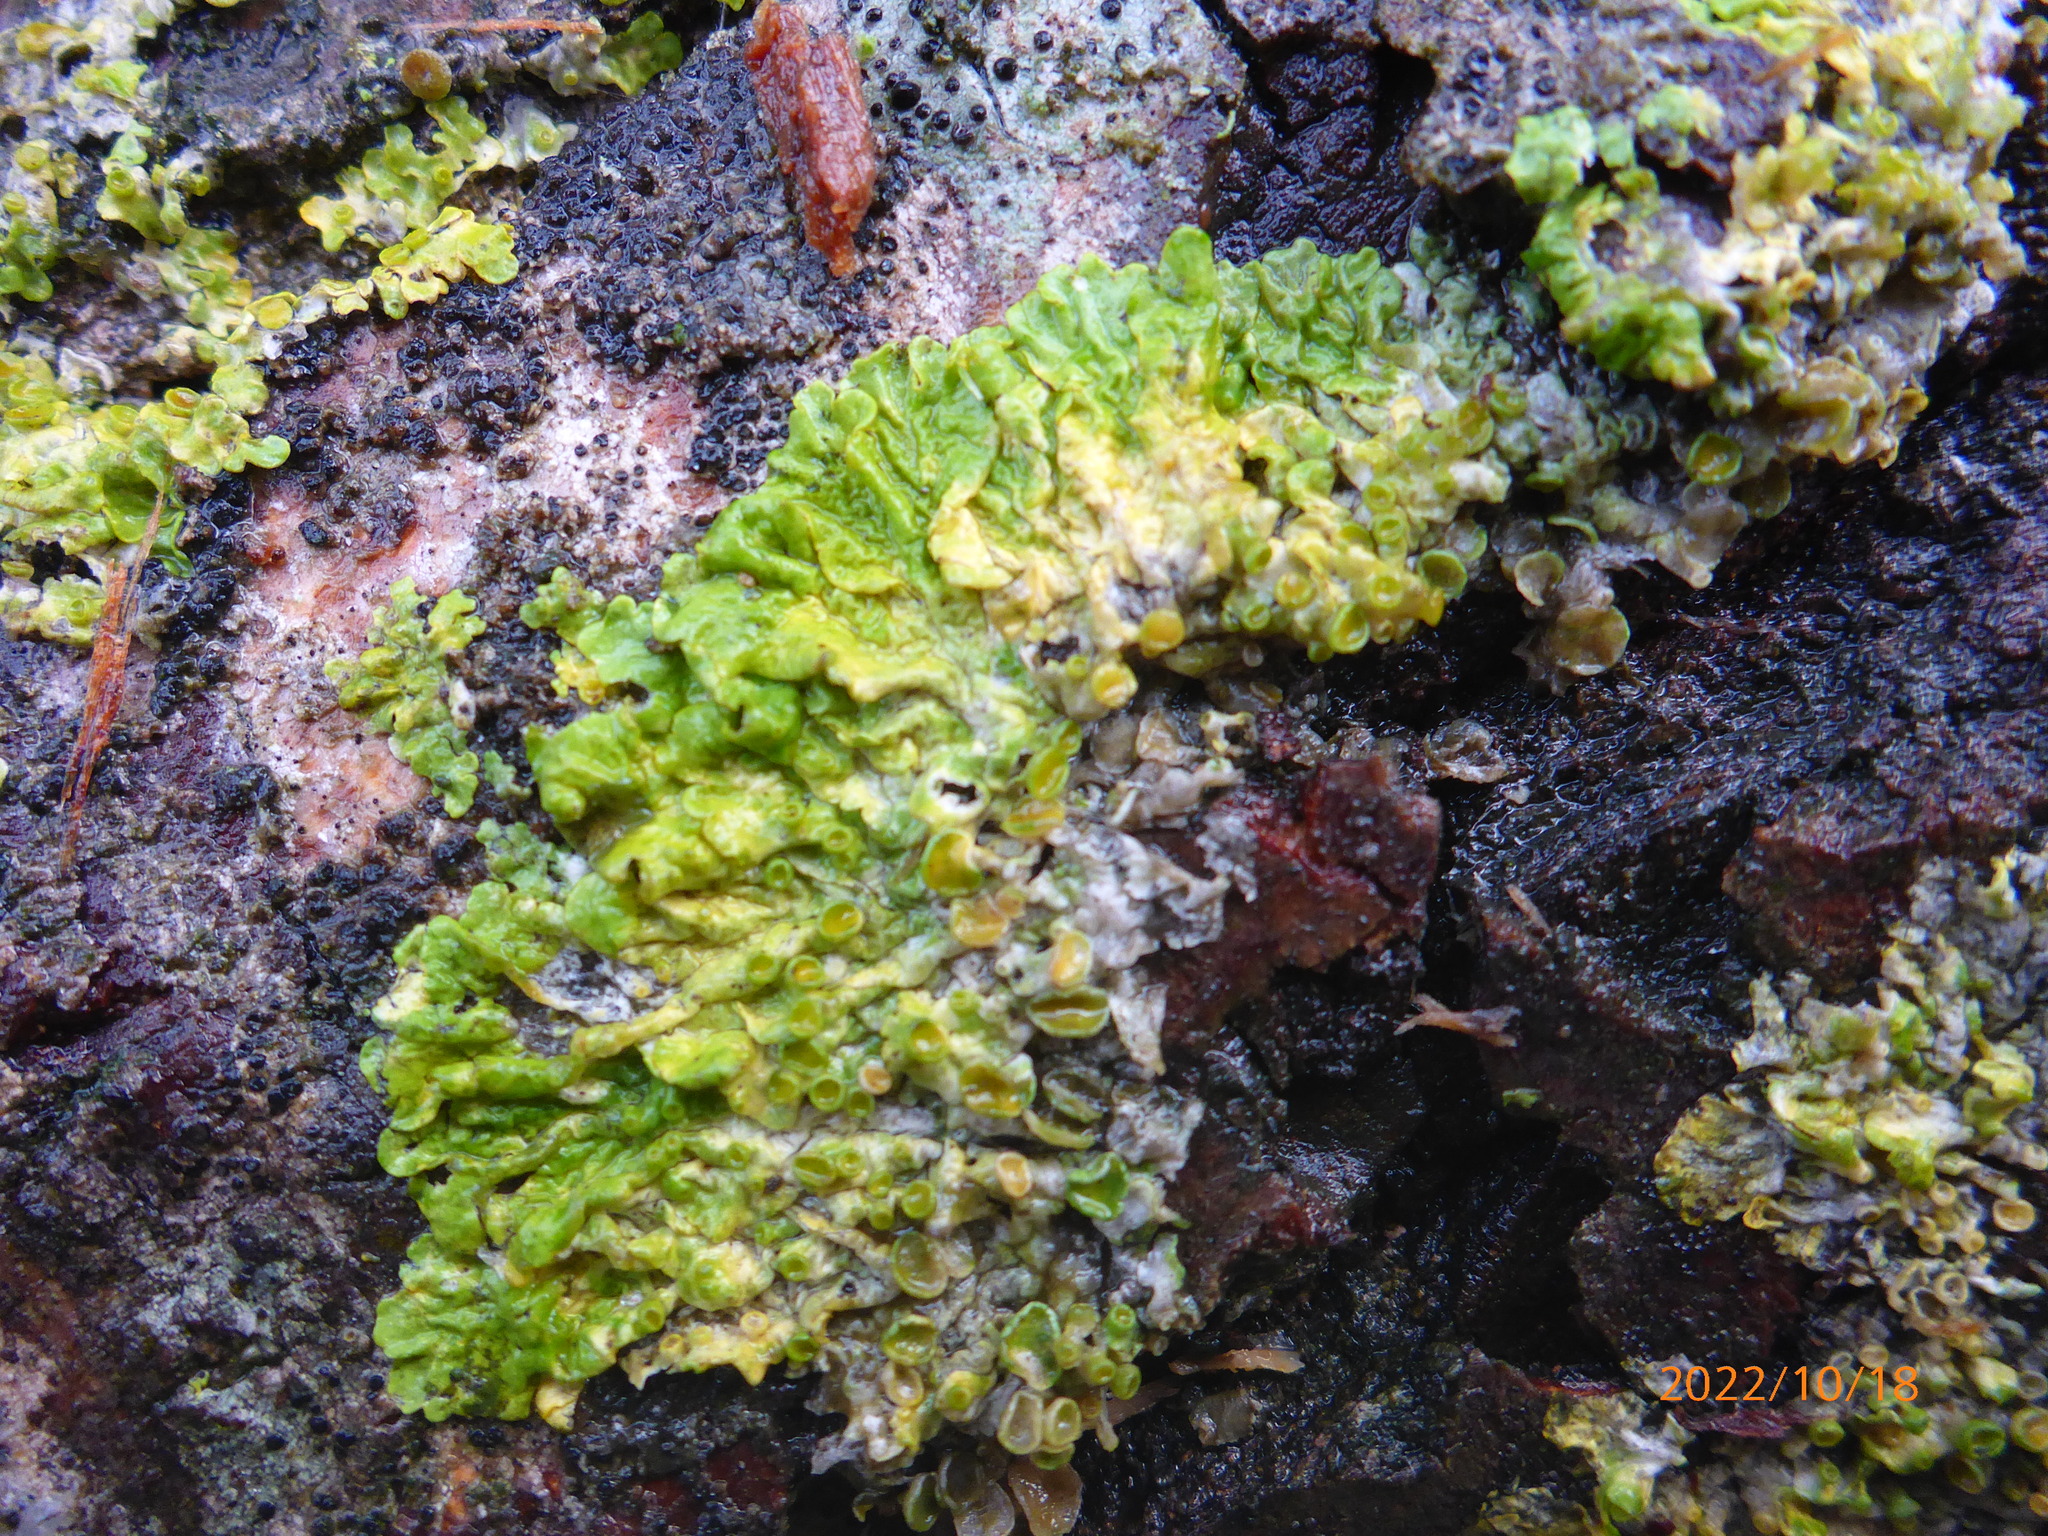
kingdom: Fungi
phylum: Ascomycota
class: Lecanoromycetes
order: Teloschistales
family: Teloschistaceae
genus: Xanthoria
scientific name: Xanthoria parietina
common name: Common orange lichen
